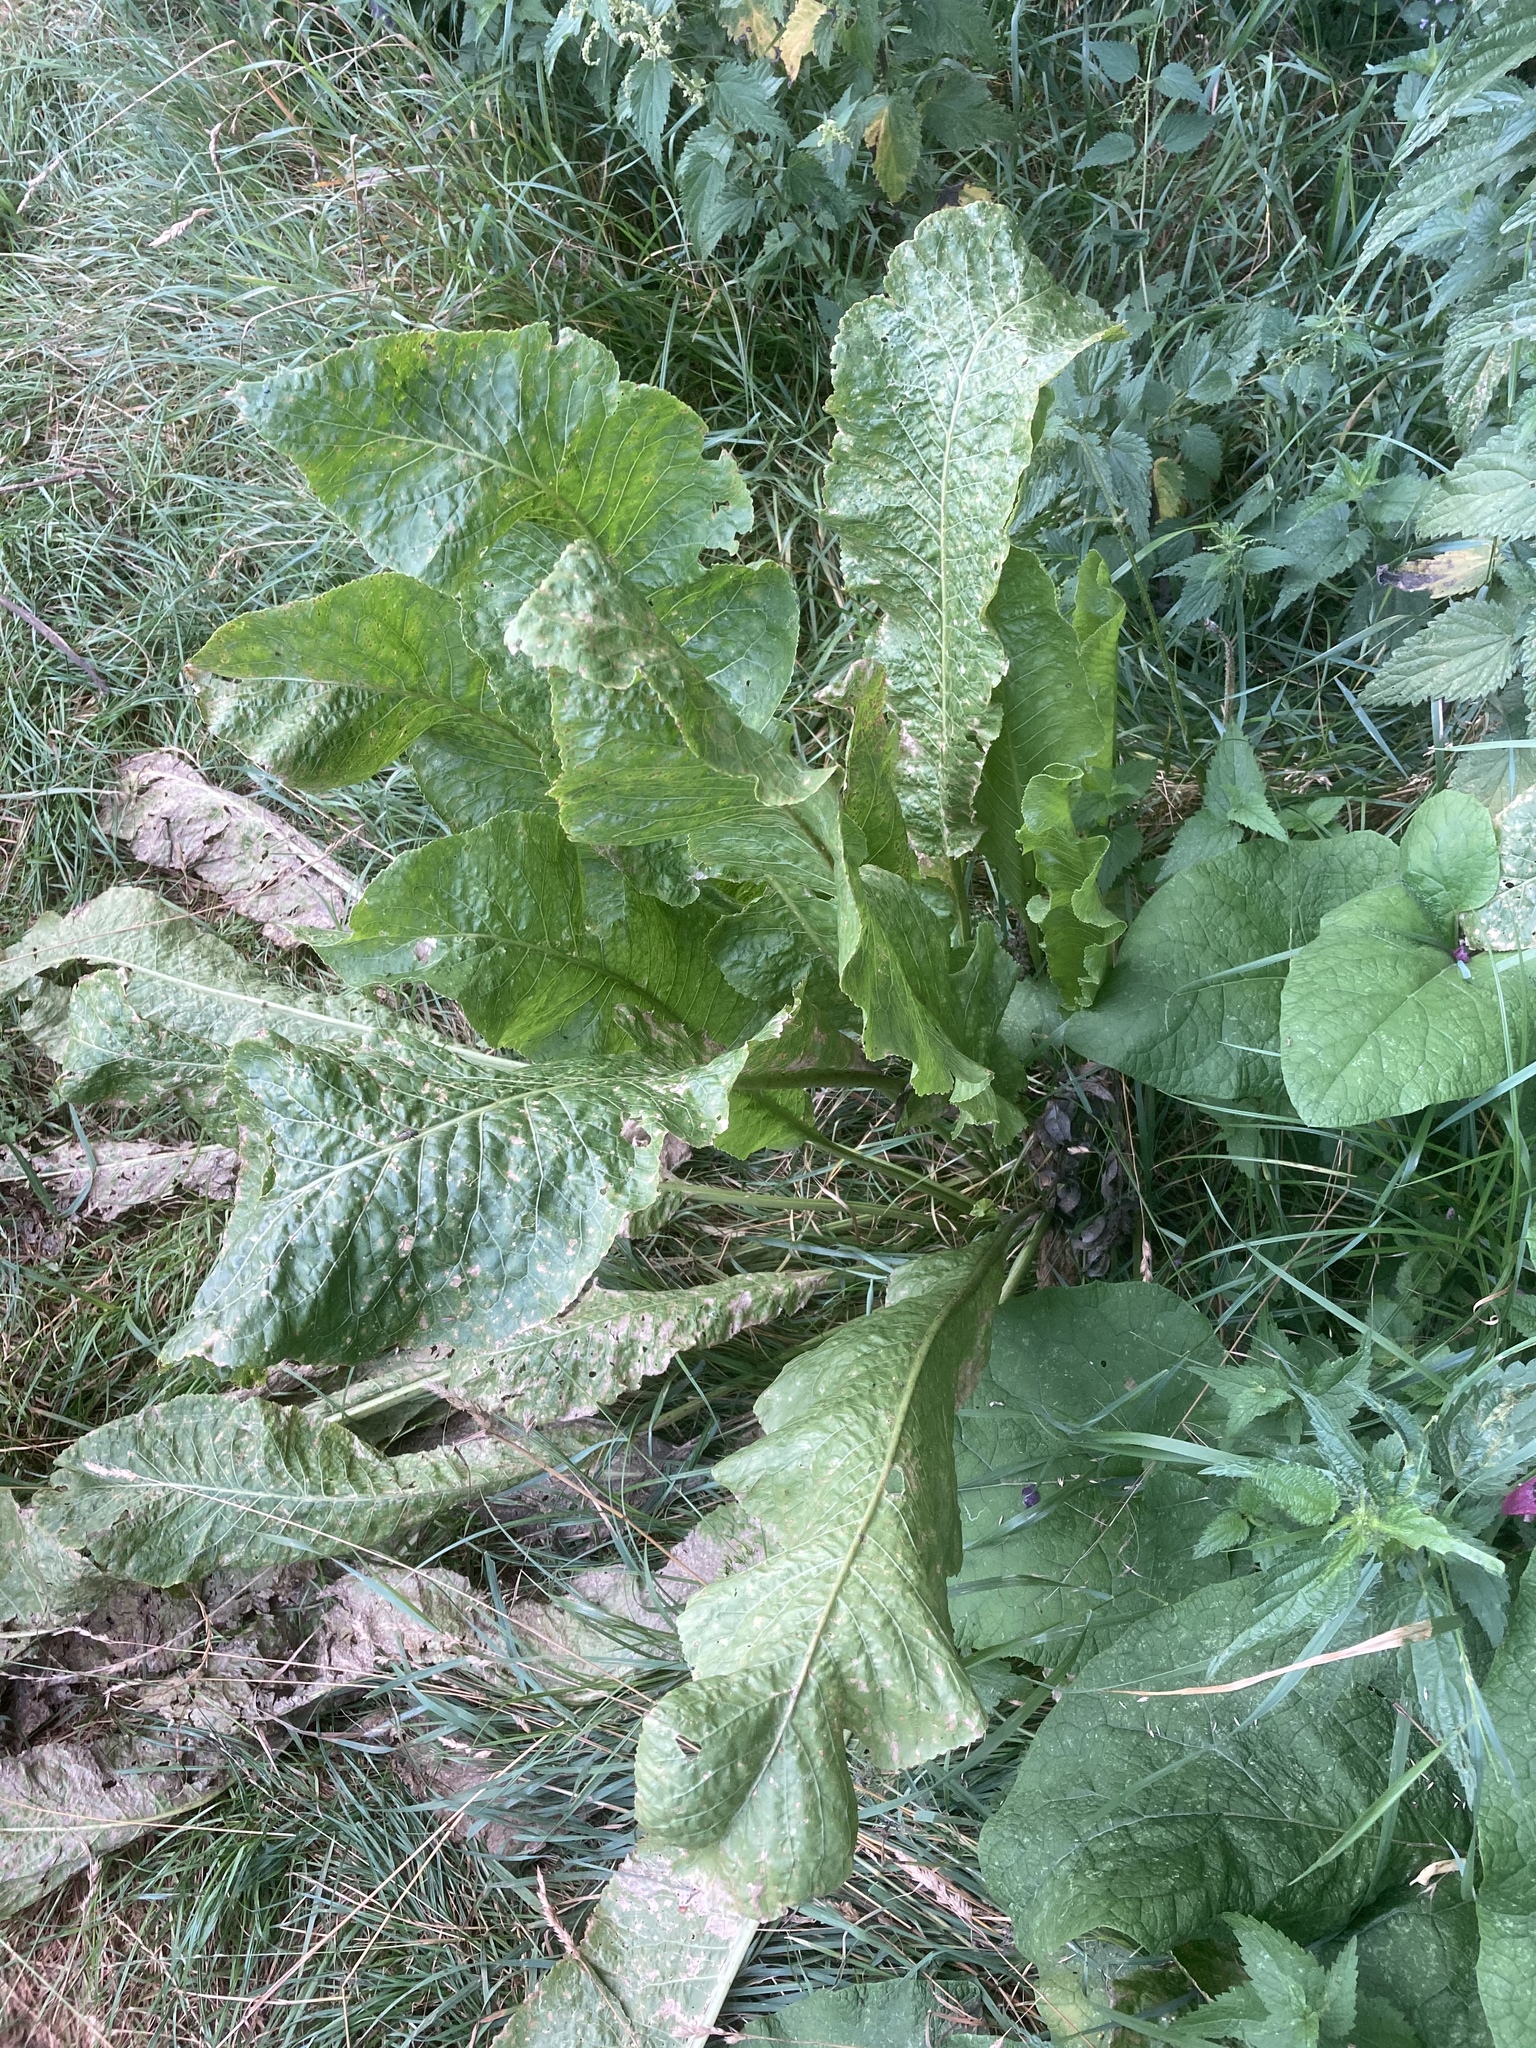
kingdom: Plantae
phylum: Tracheophyta
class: Magnoliopsida
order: Brassicales
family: Brassicaceae
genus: Armoracia
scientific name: Armoracia rusticana
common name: Horseradish
